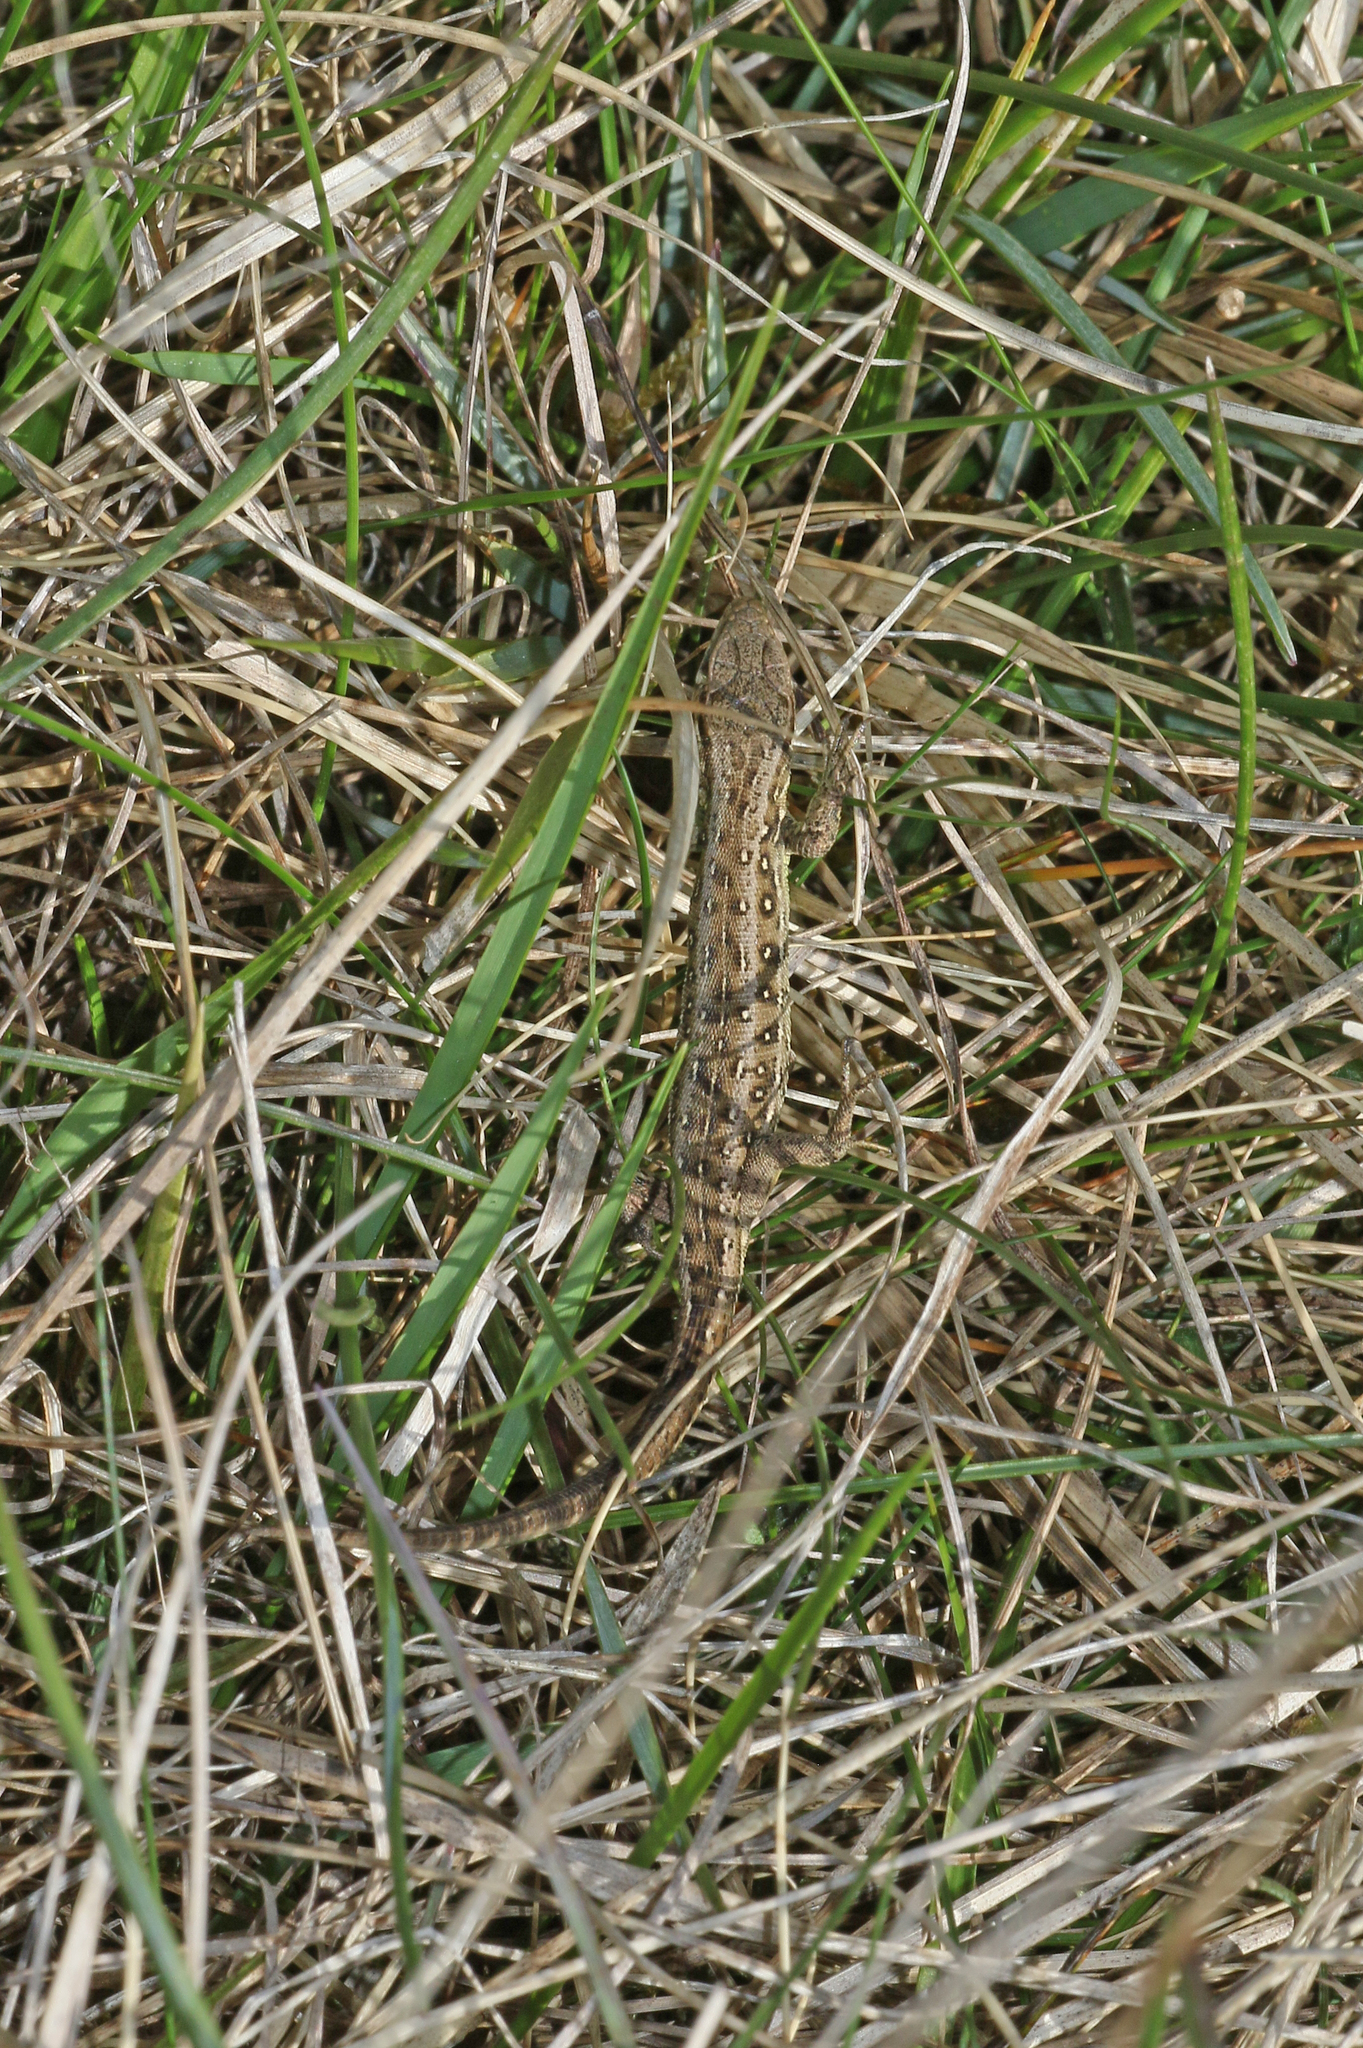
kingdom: Animalia
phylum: Chordata
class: Squamata
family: Lacertidae
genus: Lacerta
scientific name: Lacerta agilis
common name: Sand lizard
